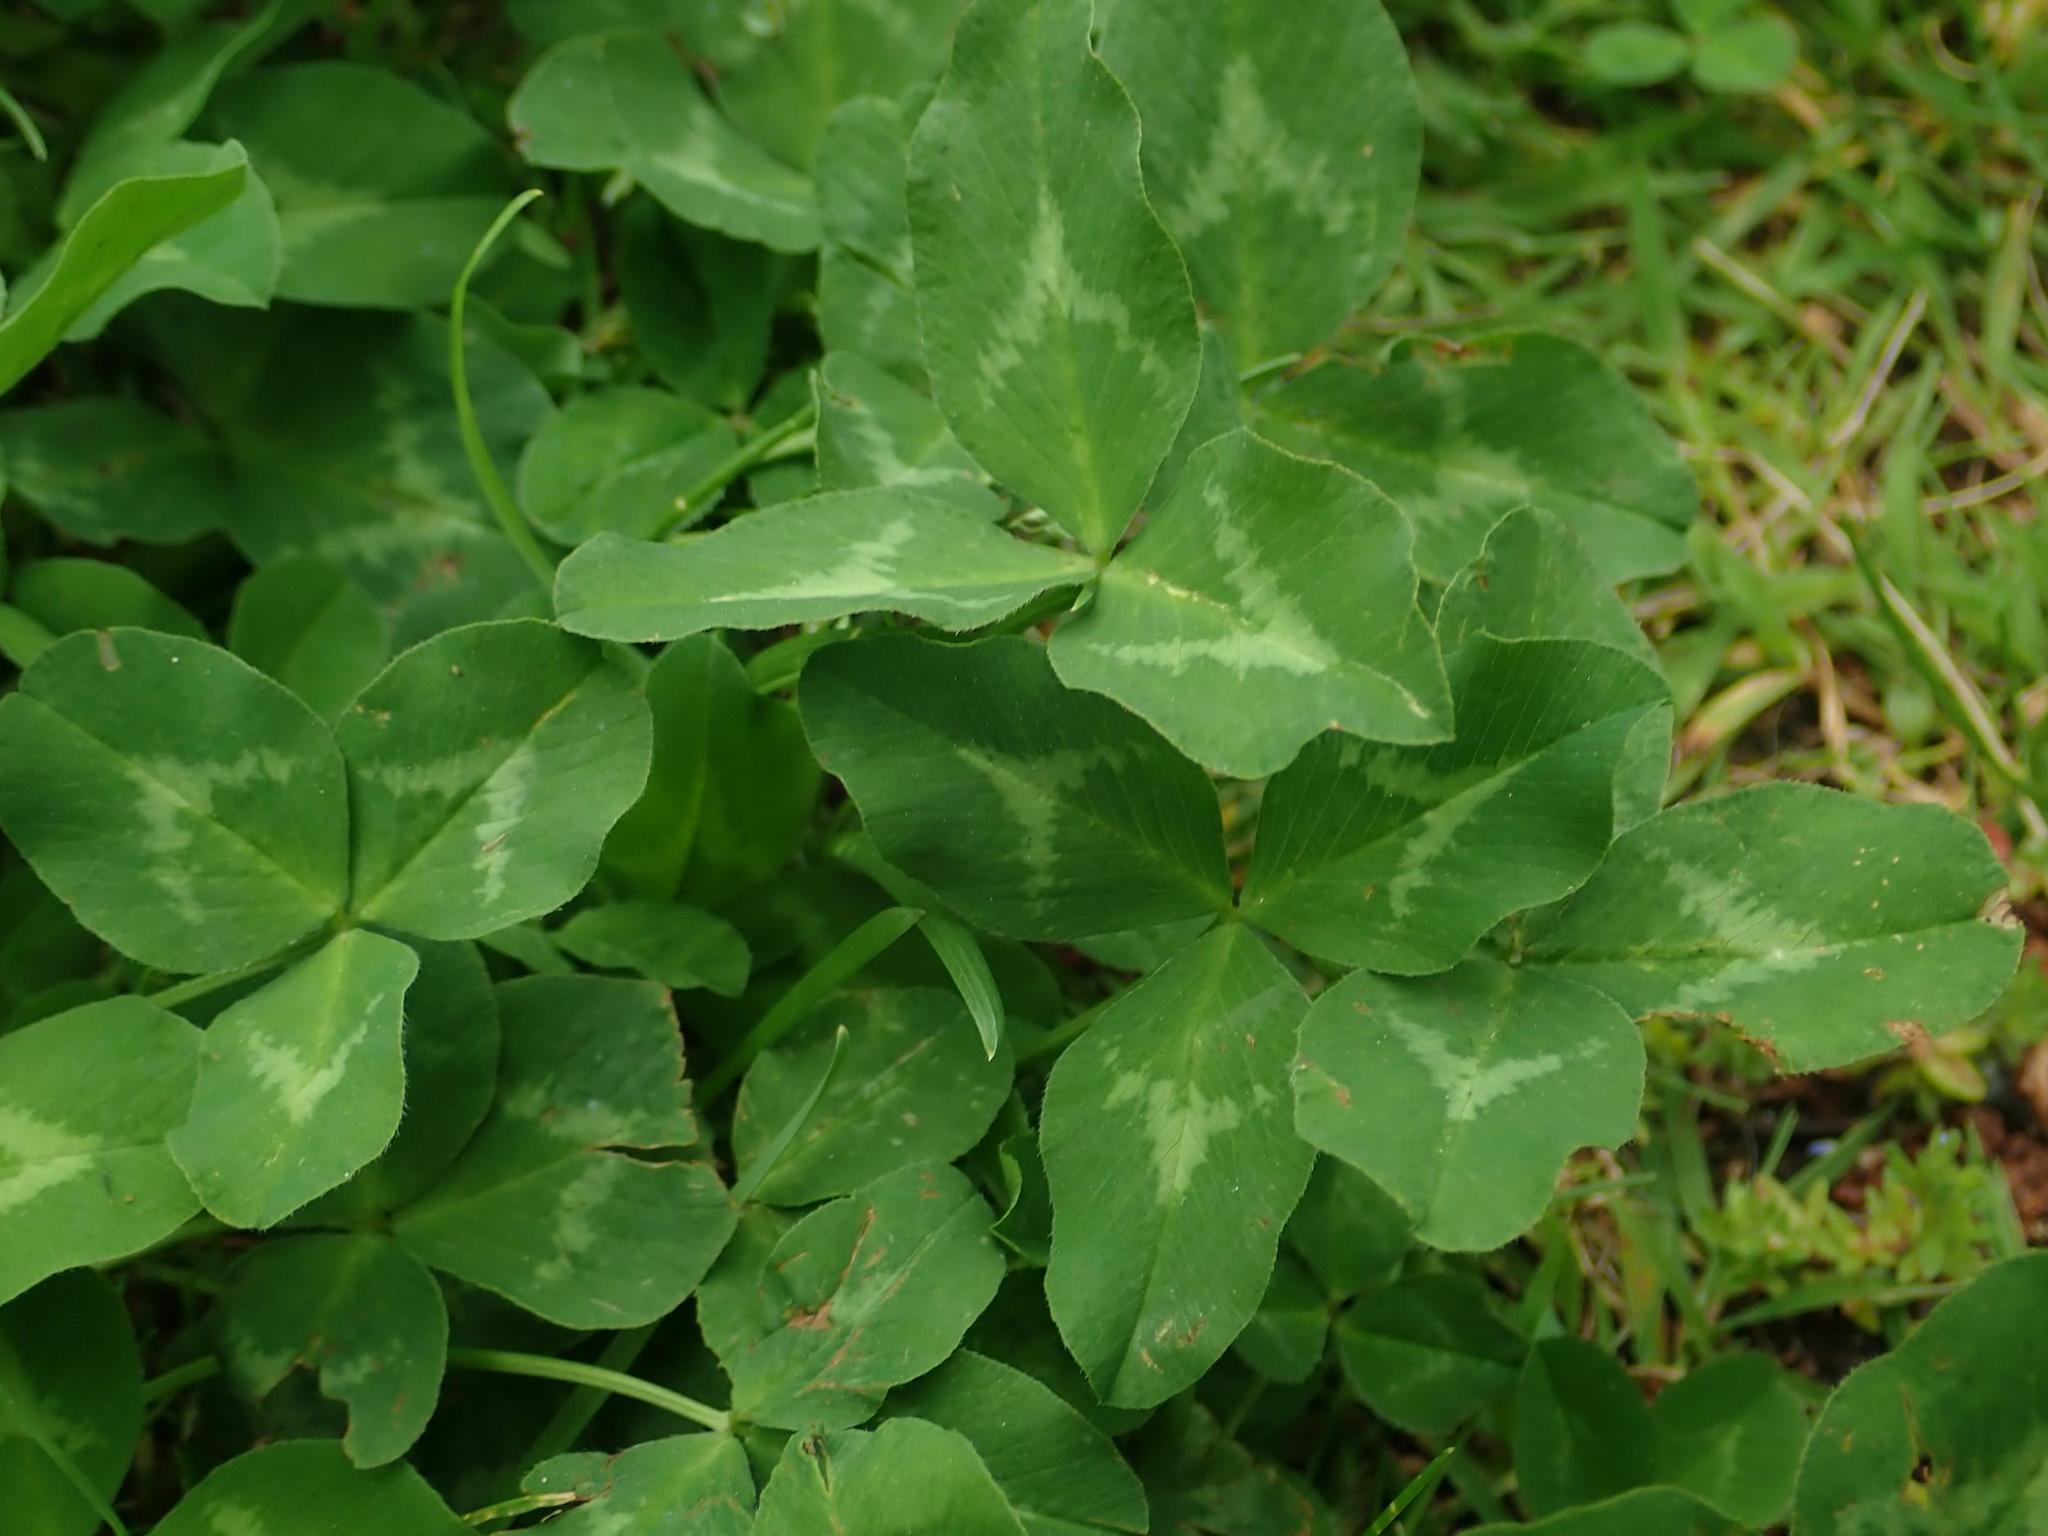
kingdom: Plantae
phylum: Tracheophyta
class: Magnoliopsida
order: Fabales
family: Fabaceae
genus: Trifolium
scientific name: Trifolium repens
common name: White clover
